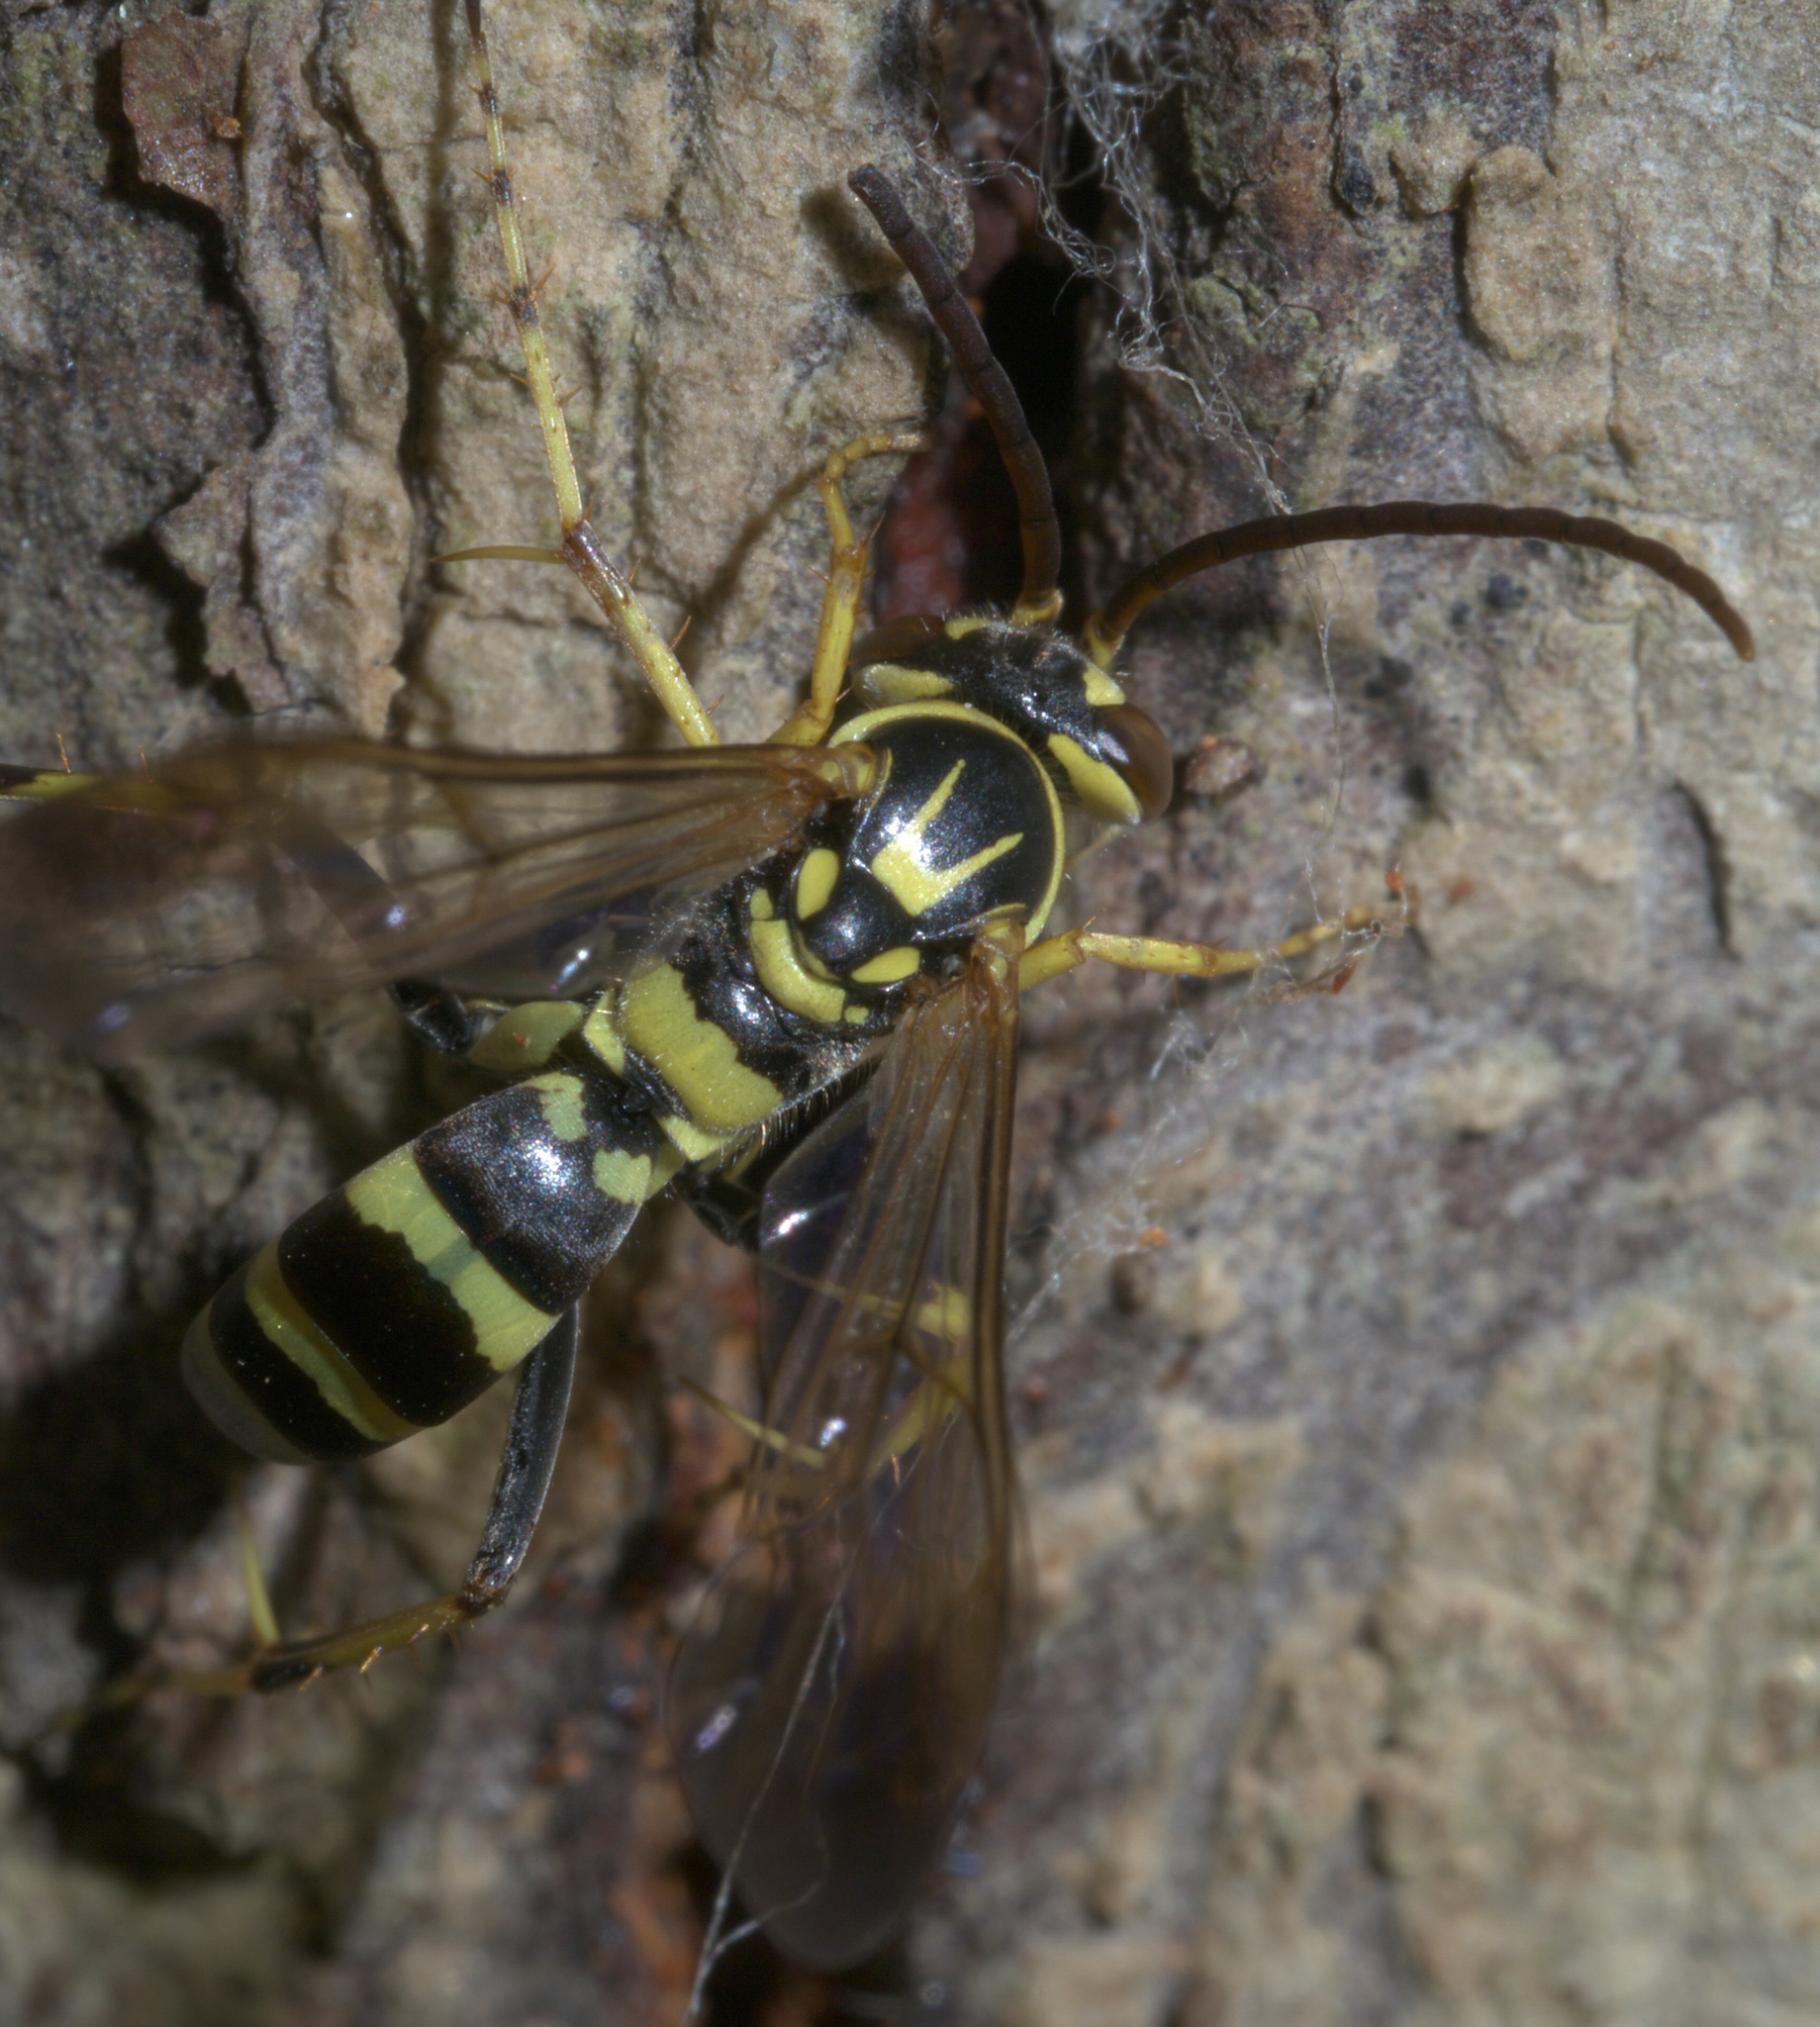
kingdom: Animalia
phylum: Arthropoda
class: Insecta
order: Hymenoptera
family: Pompilidae
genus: Poecilopompilus
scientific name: Poecilopompilus interruptus
